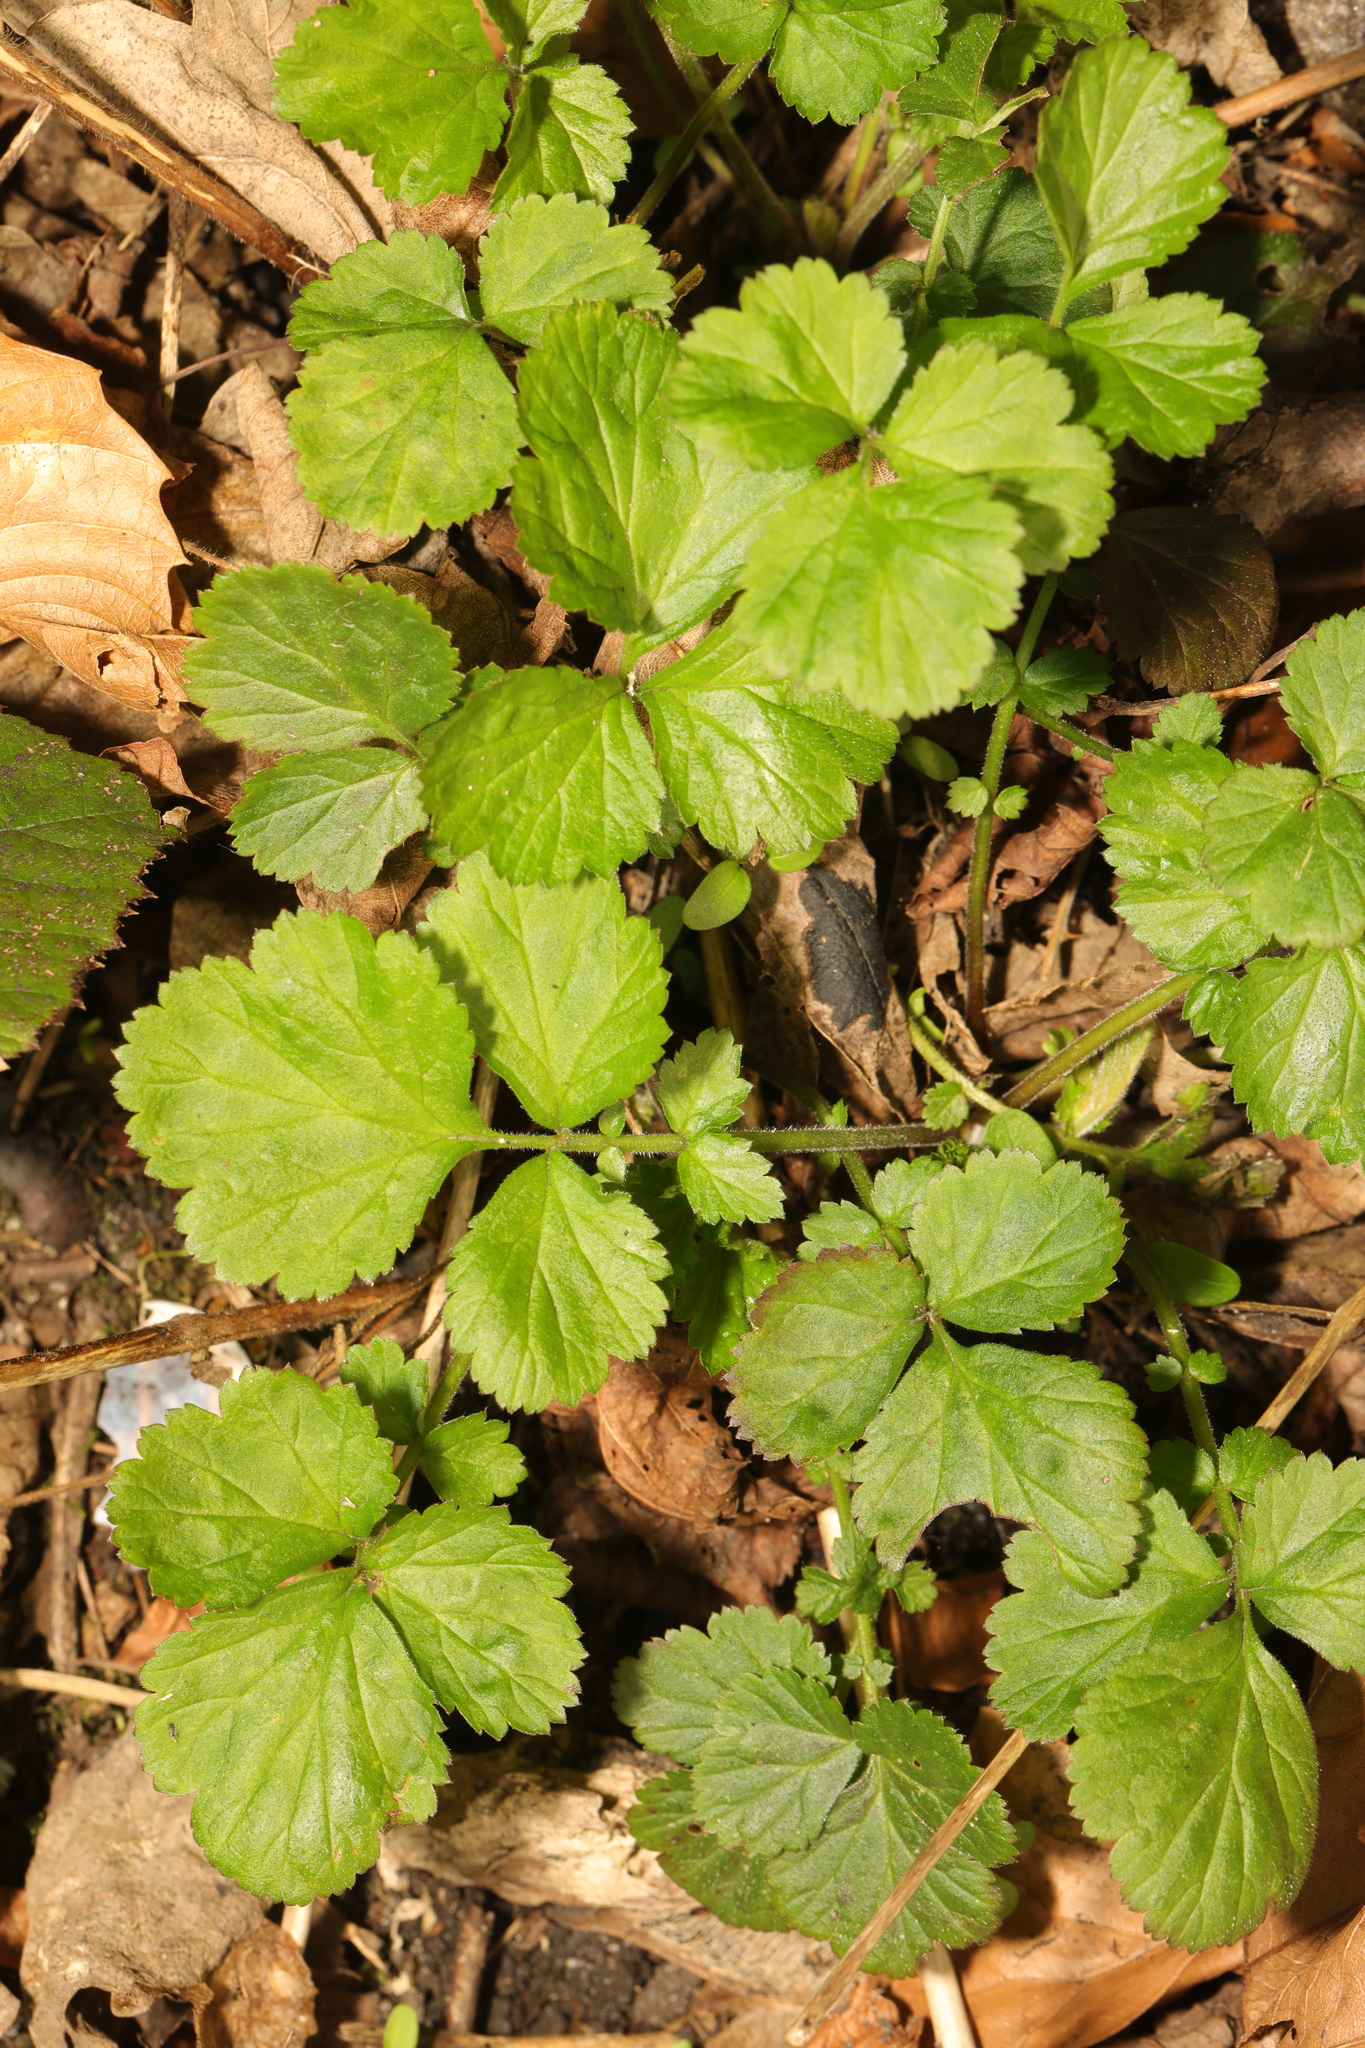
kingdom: Plantae
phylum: Tracheophyta
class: Magnoliopsida
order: Rosales
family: Rosaceae
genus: Geum
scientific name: Geum urbanum
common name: Wood avens
